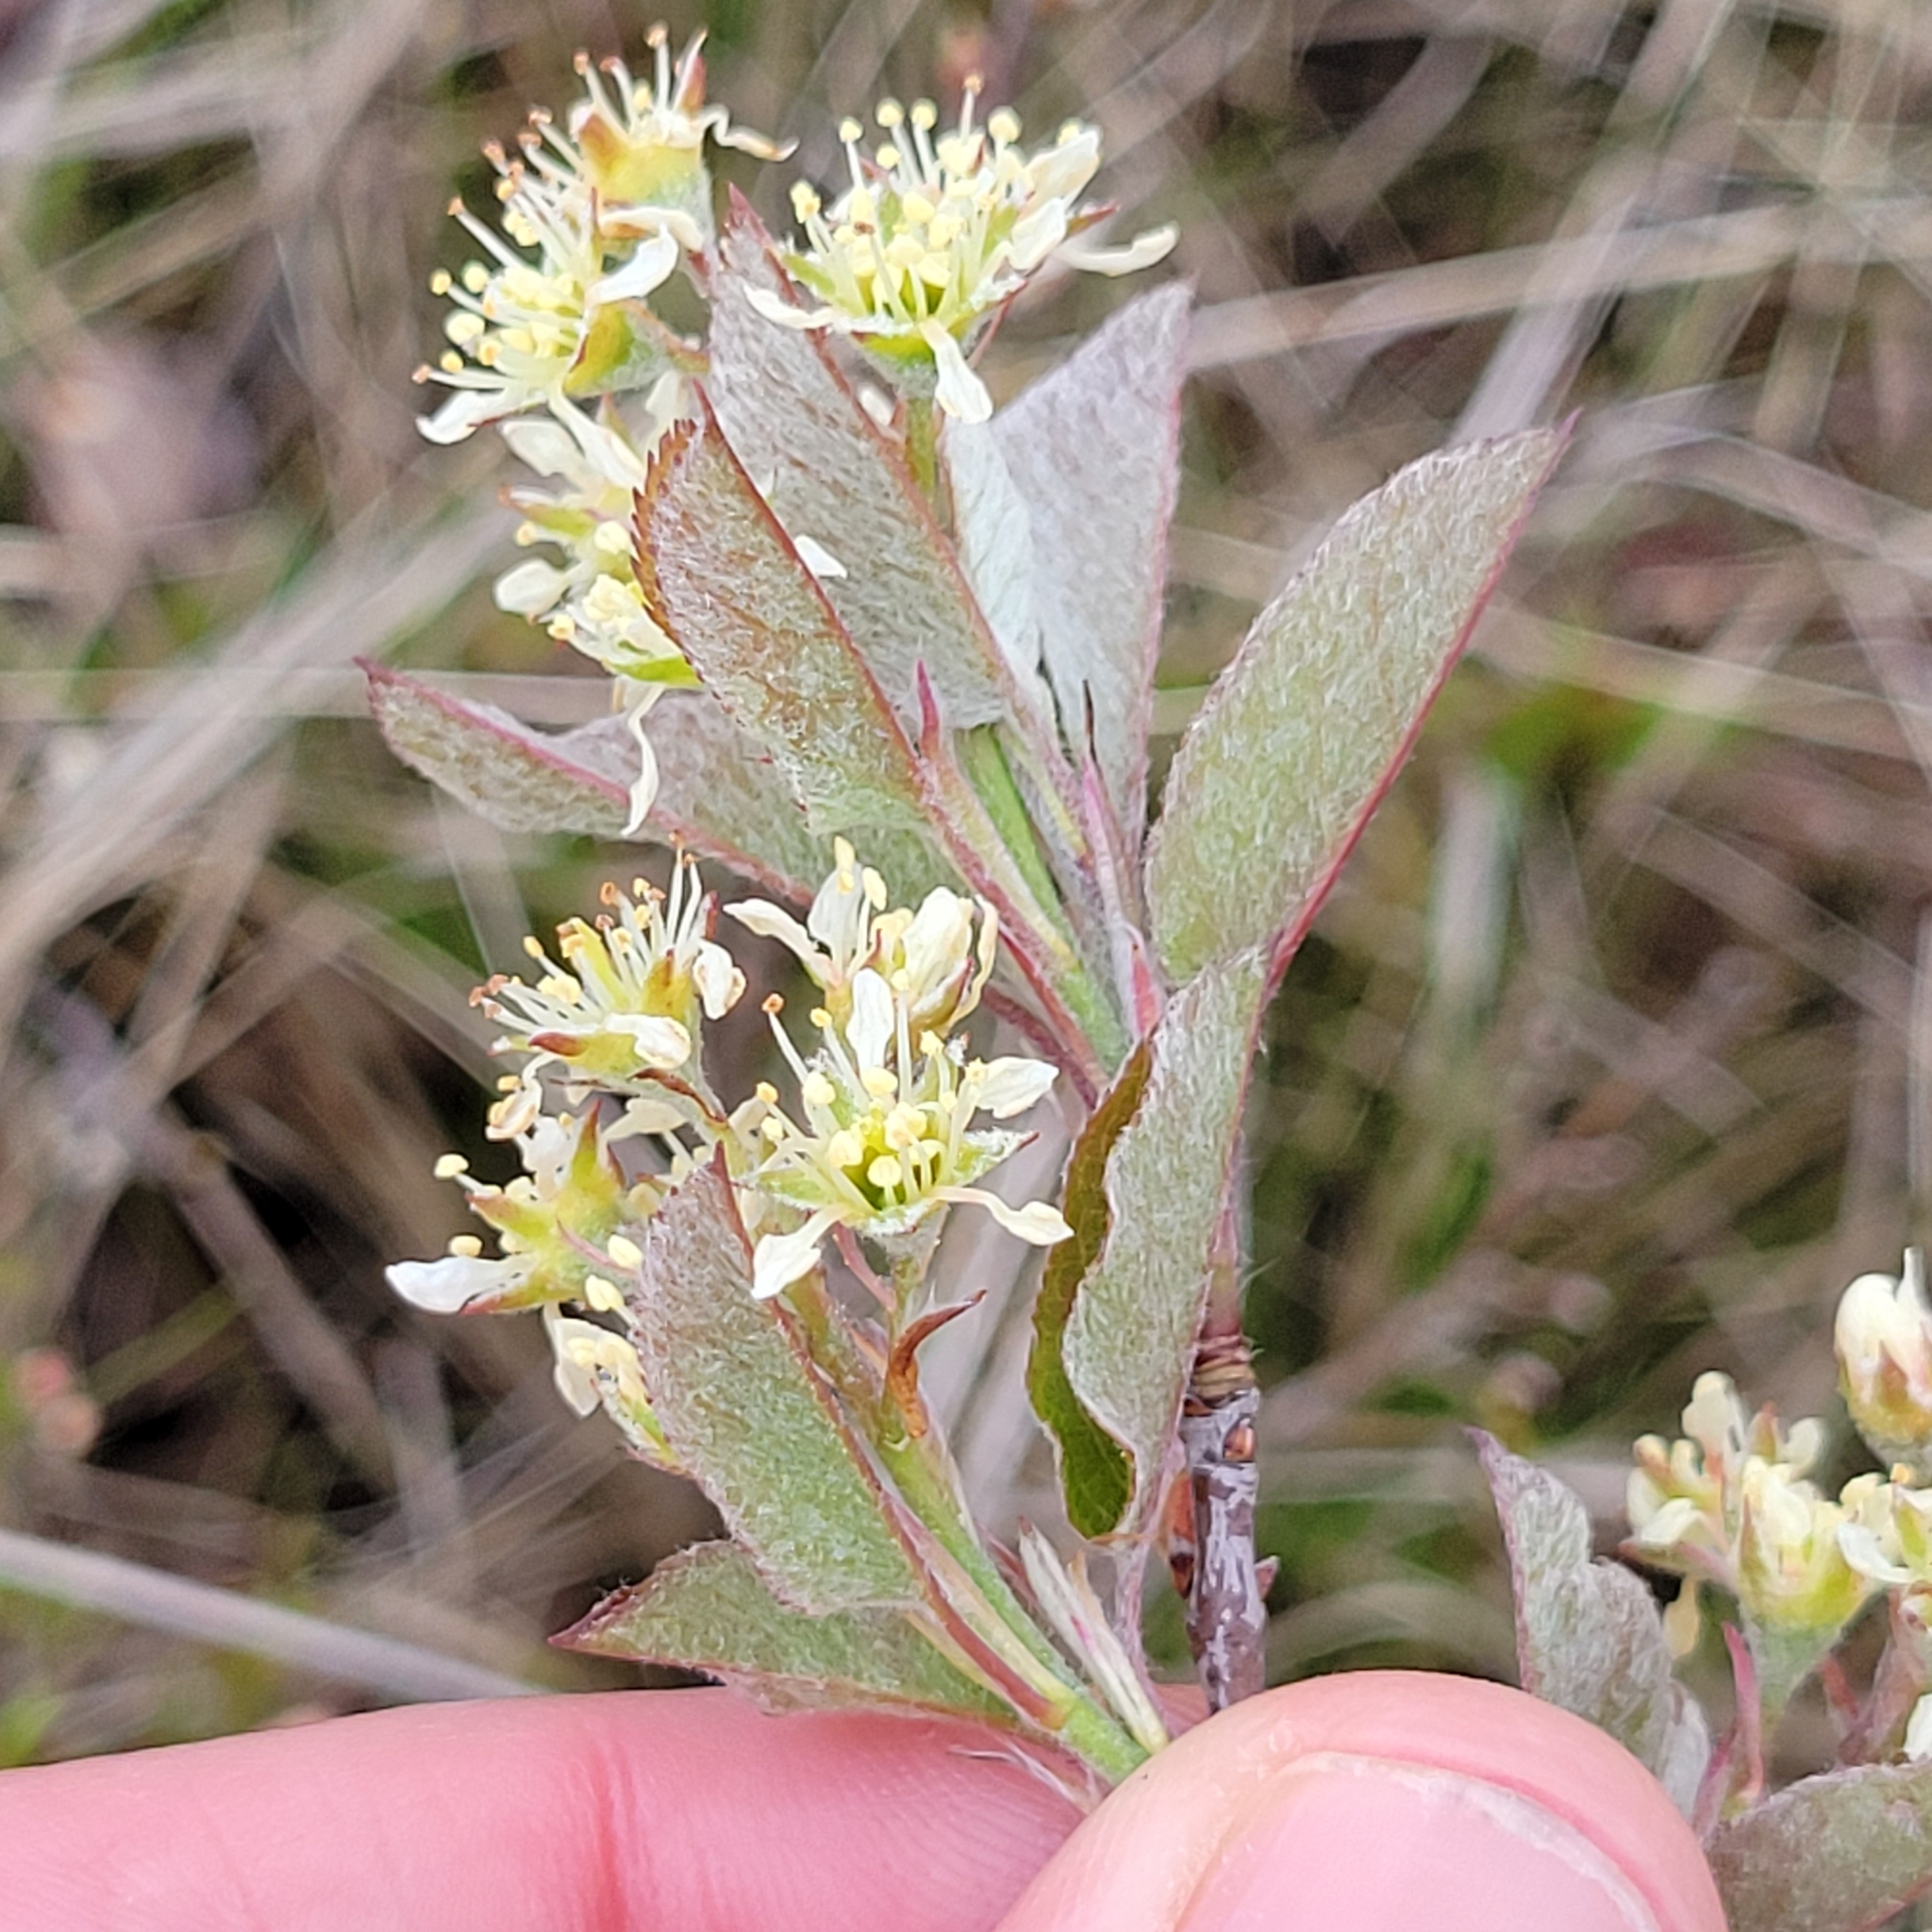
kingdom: Plantae
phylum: Tracheophyta
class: Magnoliopsida
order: Rosales
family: Rosaceae
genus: Amelanchier
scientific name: Amelanchier nantucketensis
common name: Nantucket shadbush
